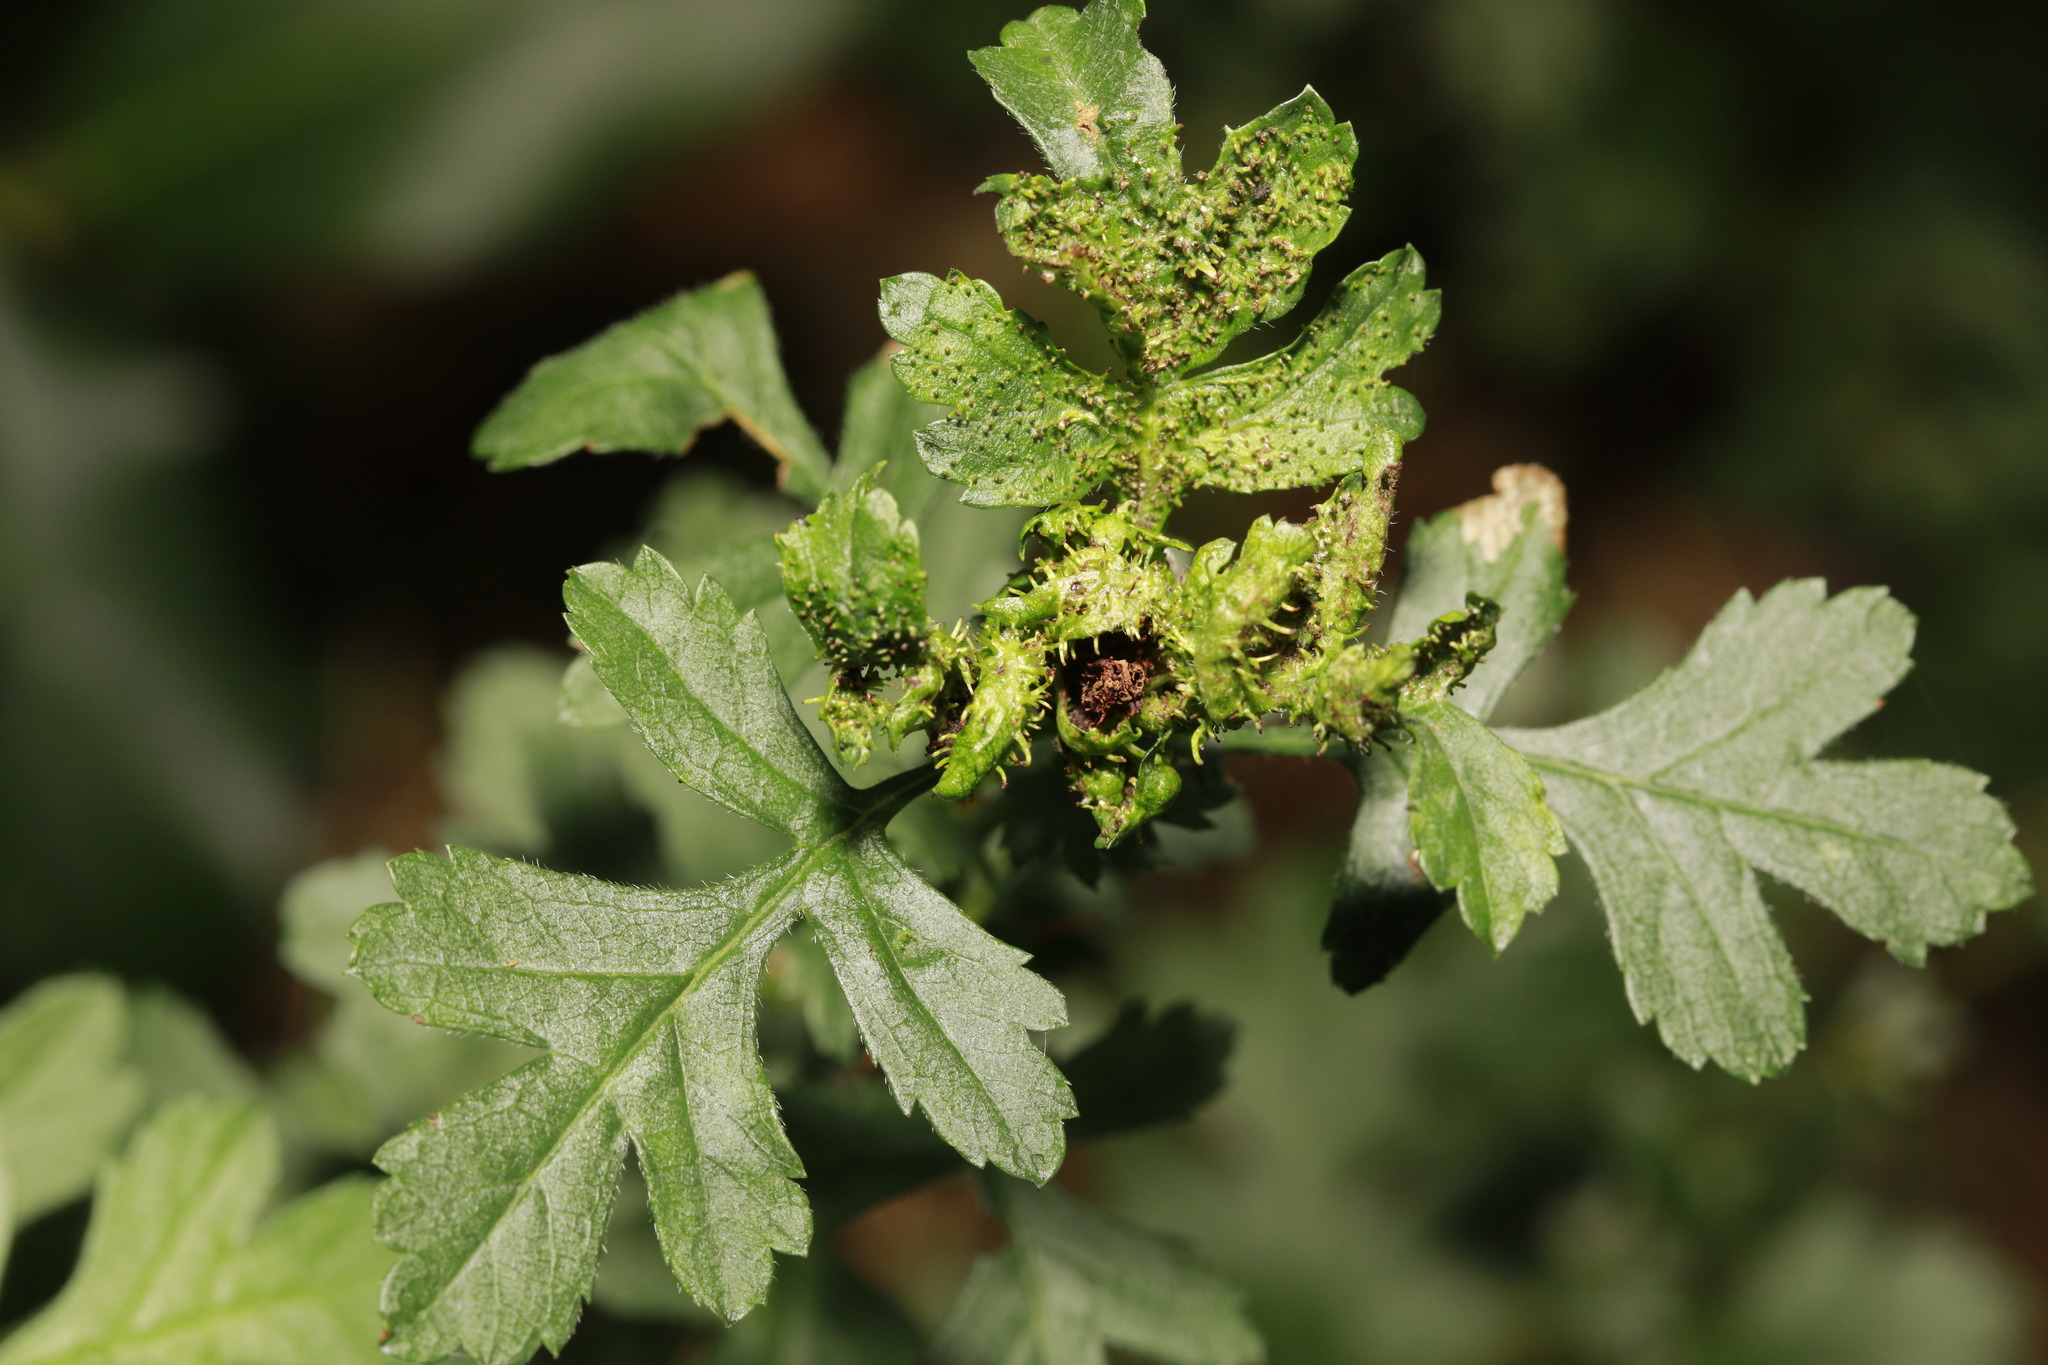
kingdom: Animalia
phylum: Arthropoda
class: Insecta
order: Diptera
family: Cecidomyiidae
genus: Dasineura
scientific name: Dasineura crataegi
